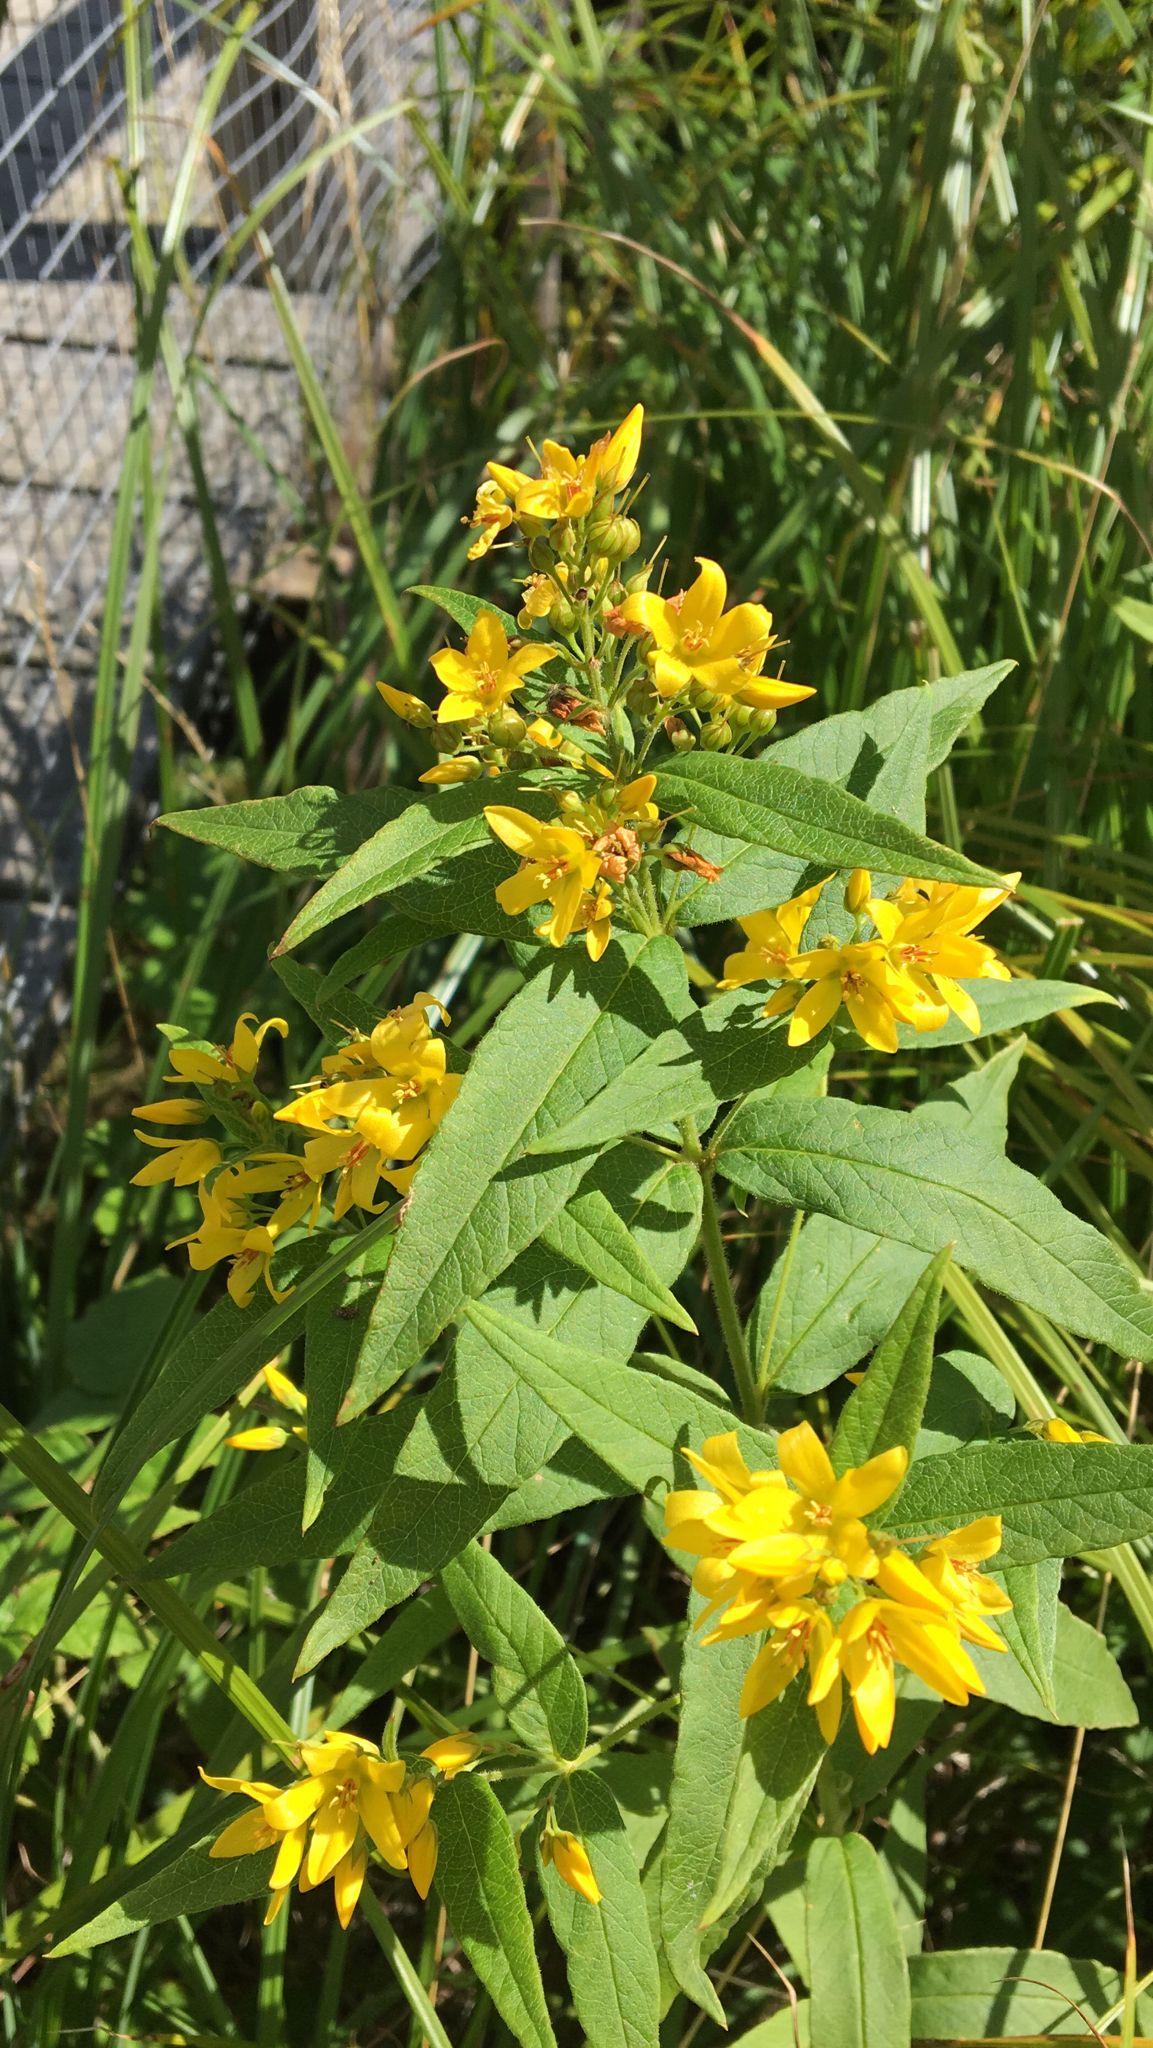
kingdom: Plantae
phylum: Tracheophyta
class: Magnoliopsida
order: Ericales
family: Primulaceae
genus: Lysimachia
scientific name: Lysimachia vulgaris
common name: Yellow loosestrife
